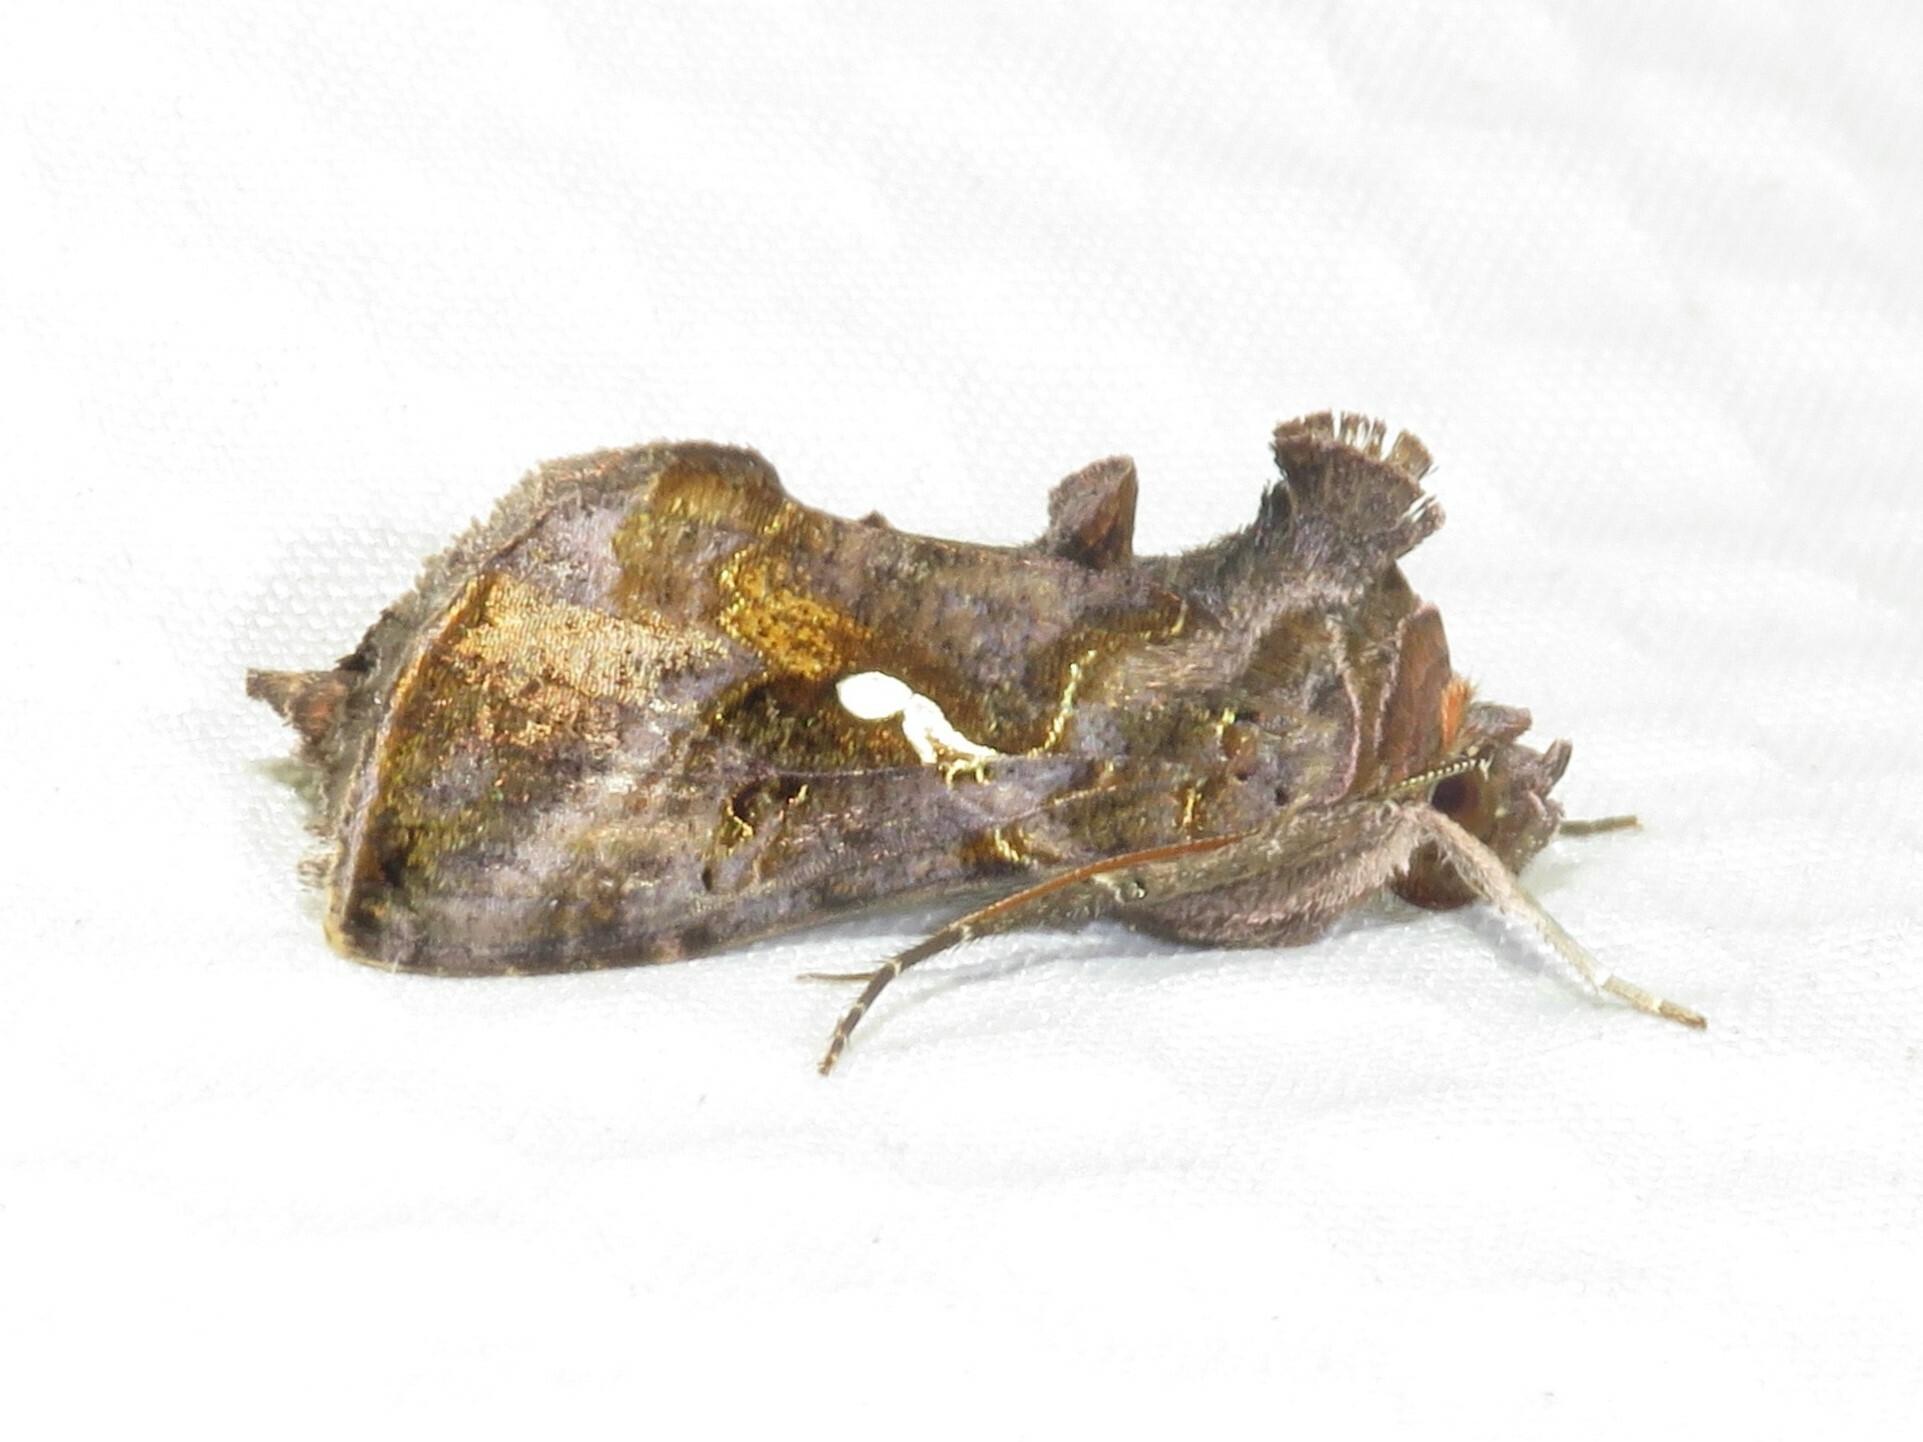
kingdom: Animalia
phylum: Arthropoda
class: Insecta
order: Lepidoptera
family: Noctuidae
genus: Autographa
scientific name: Autographa precationis
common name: Common looper moth
